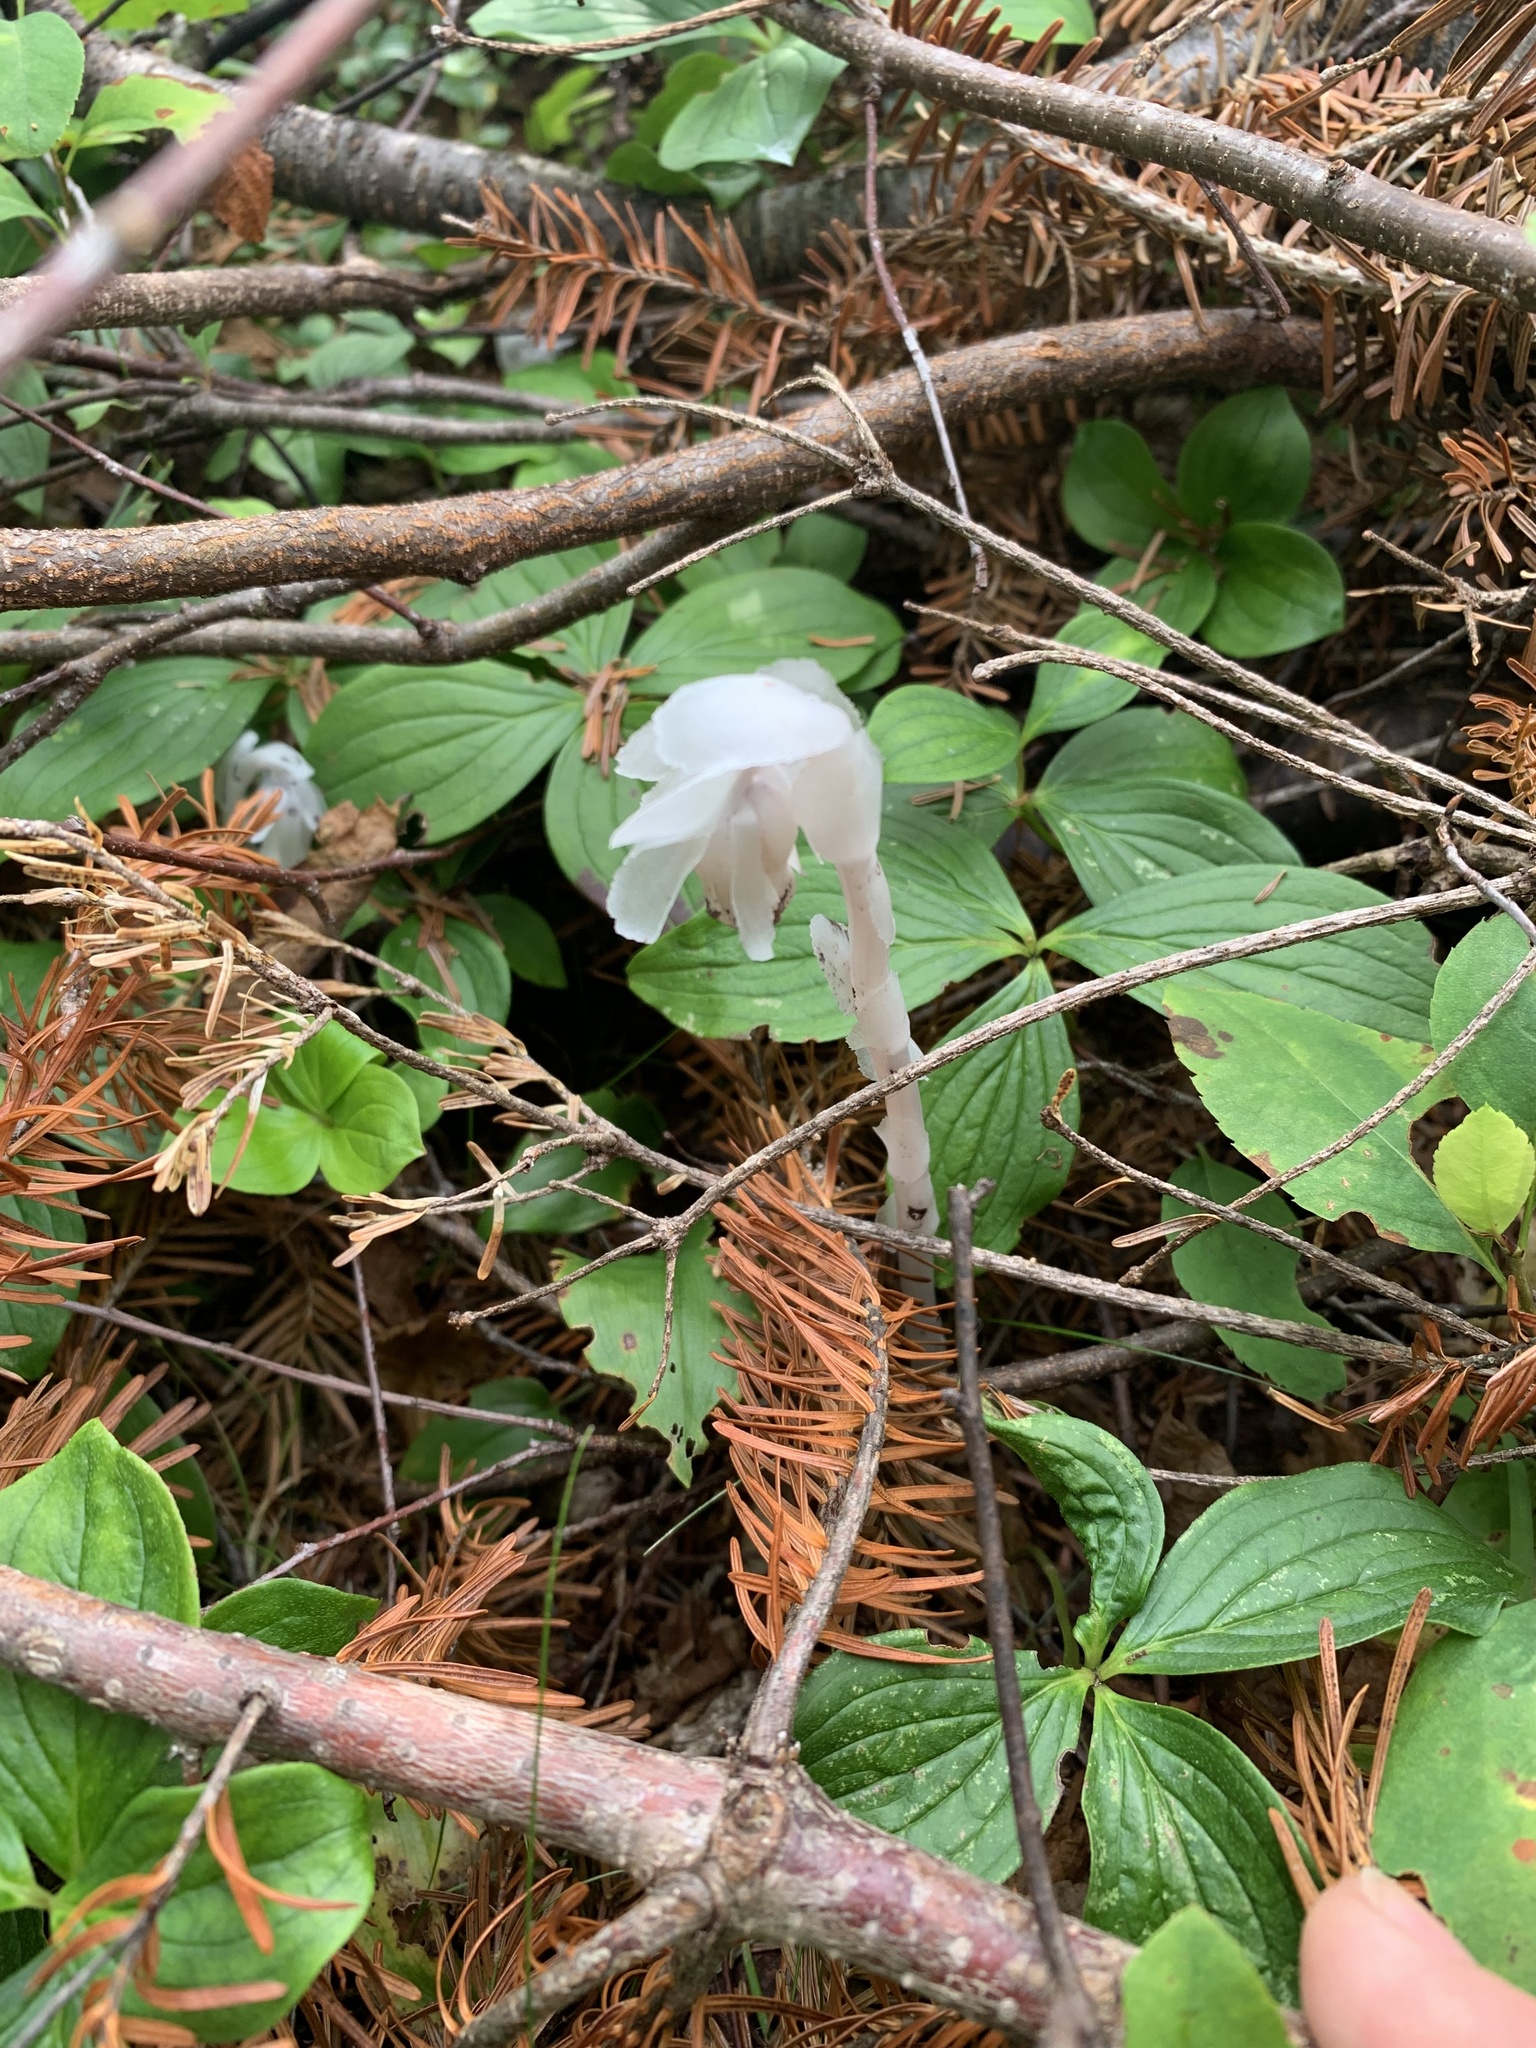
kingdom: Plantae
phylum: Tracheophyta
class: Magnoliopsida
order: Ericales
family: Ericaceae
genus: Monotropa
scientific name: Monotropa uniflora
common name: Convulsion root
